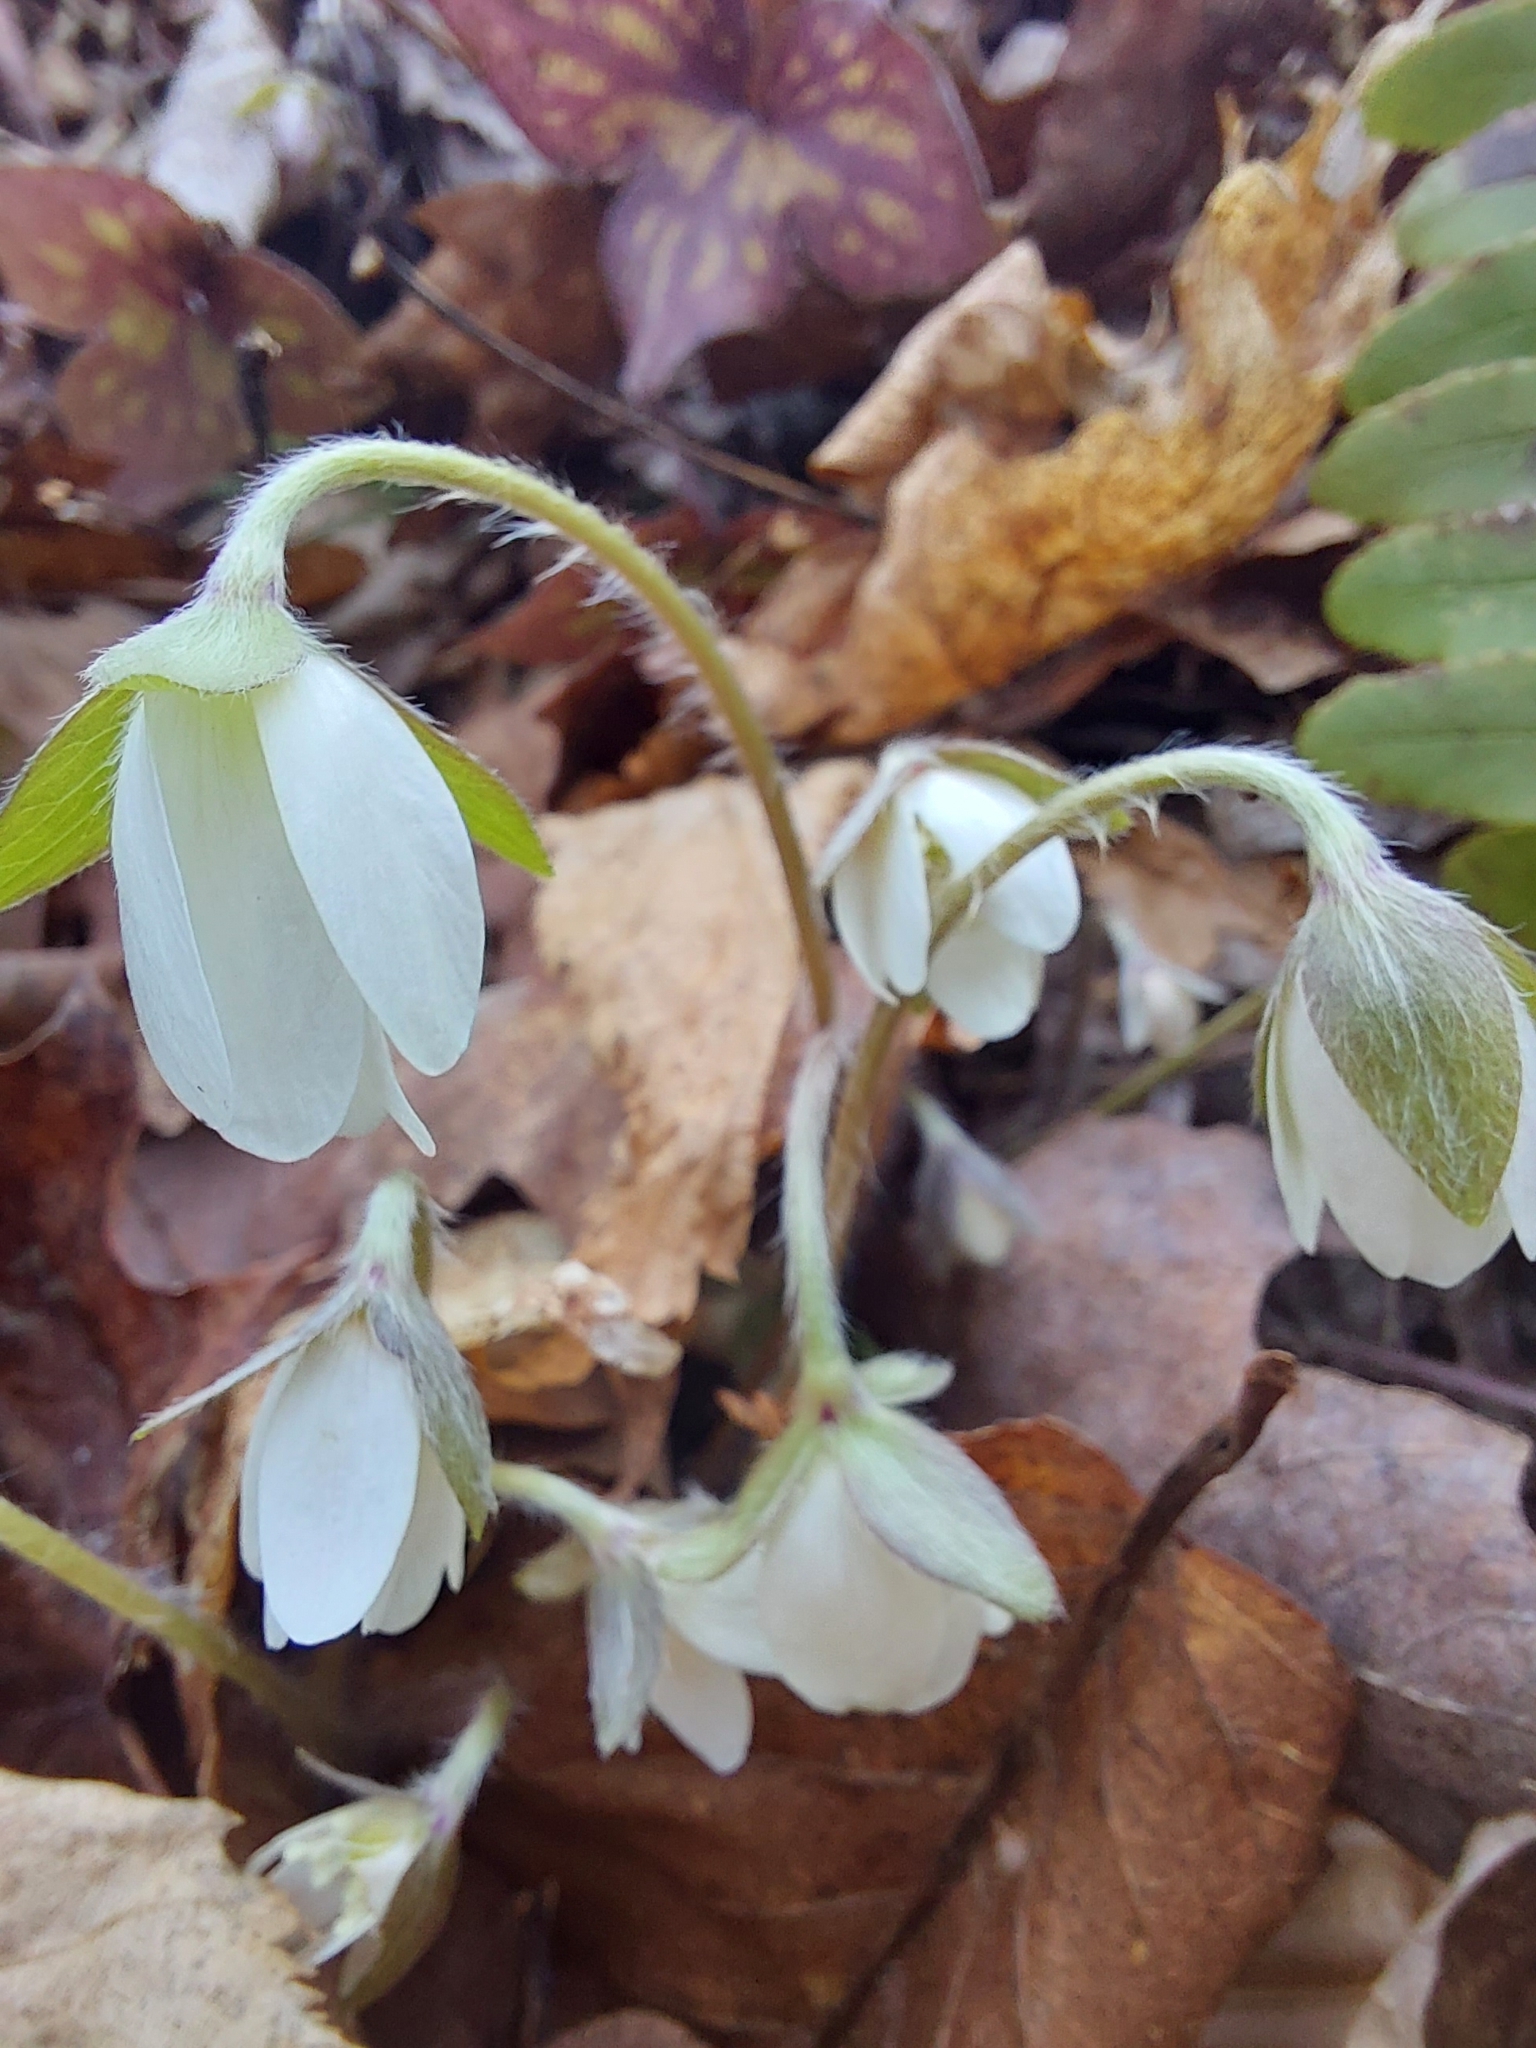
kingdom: Plantae
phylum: Tracheophyta
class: Magnoliopsida
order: Ranunculales
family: Ranunculaceae
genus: Hepatica
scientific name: Hepatica acutiloba
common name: Sharp-lobed hepatica
